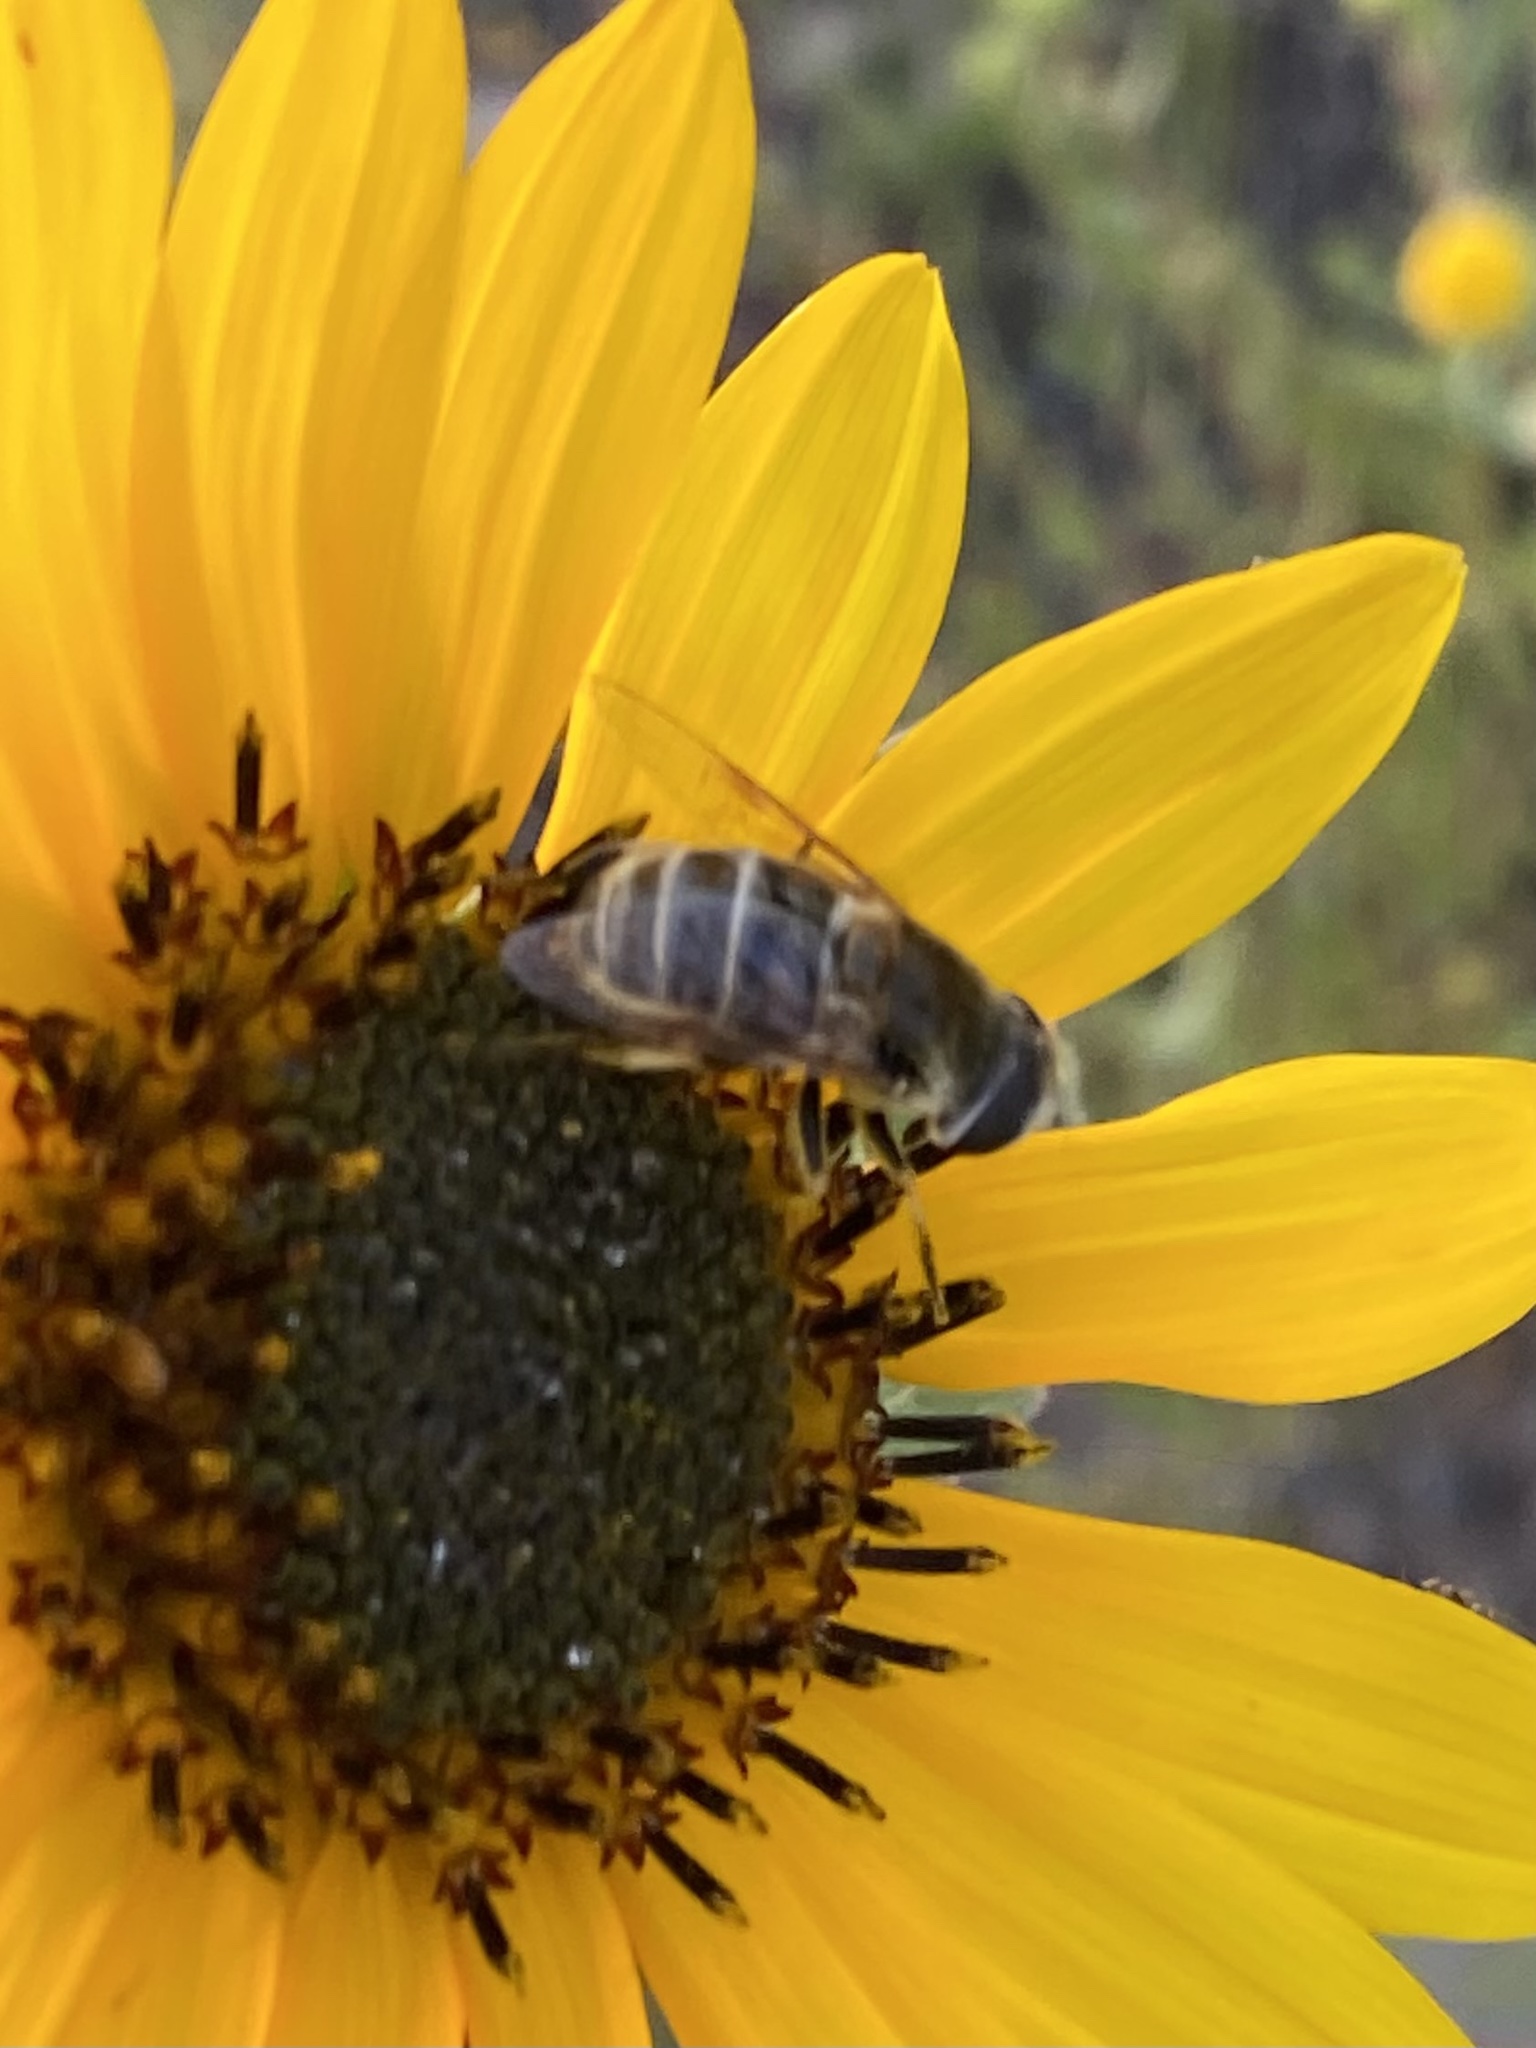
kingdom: Animalia
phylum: Arthropoda
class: Insecta
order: Diptera
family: Syrphidae
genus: Eristalis
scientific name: Eristalis stipator
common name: Yellow-shouldered drone fly
